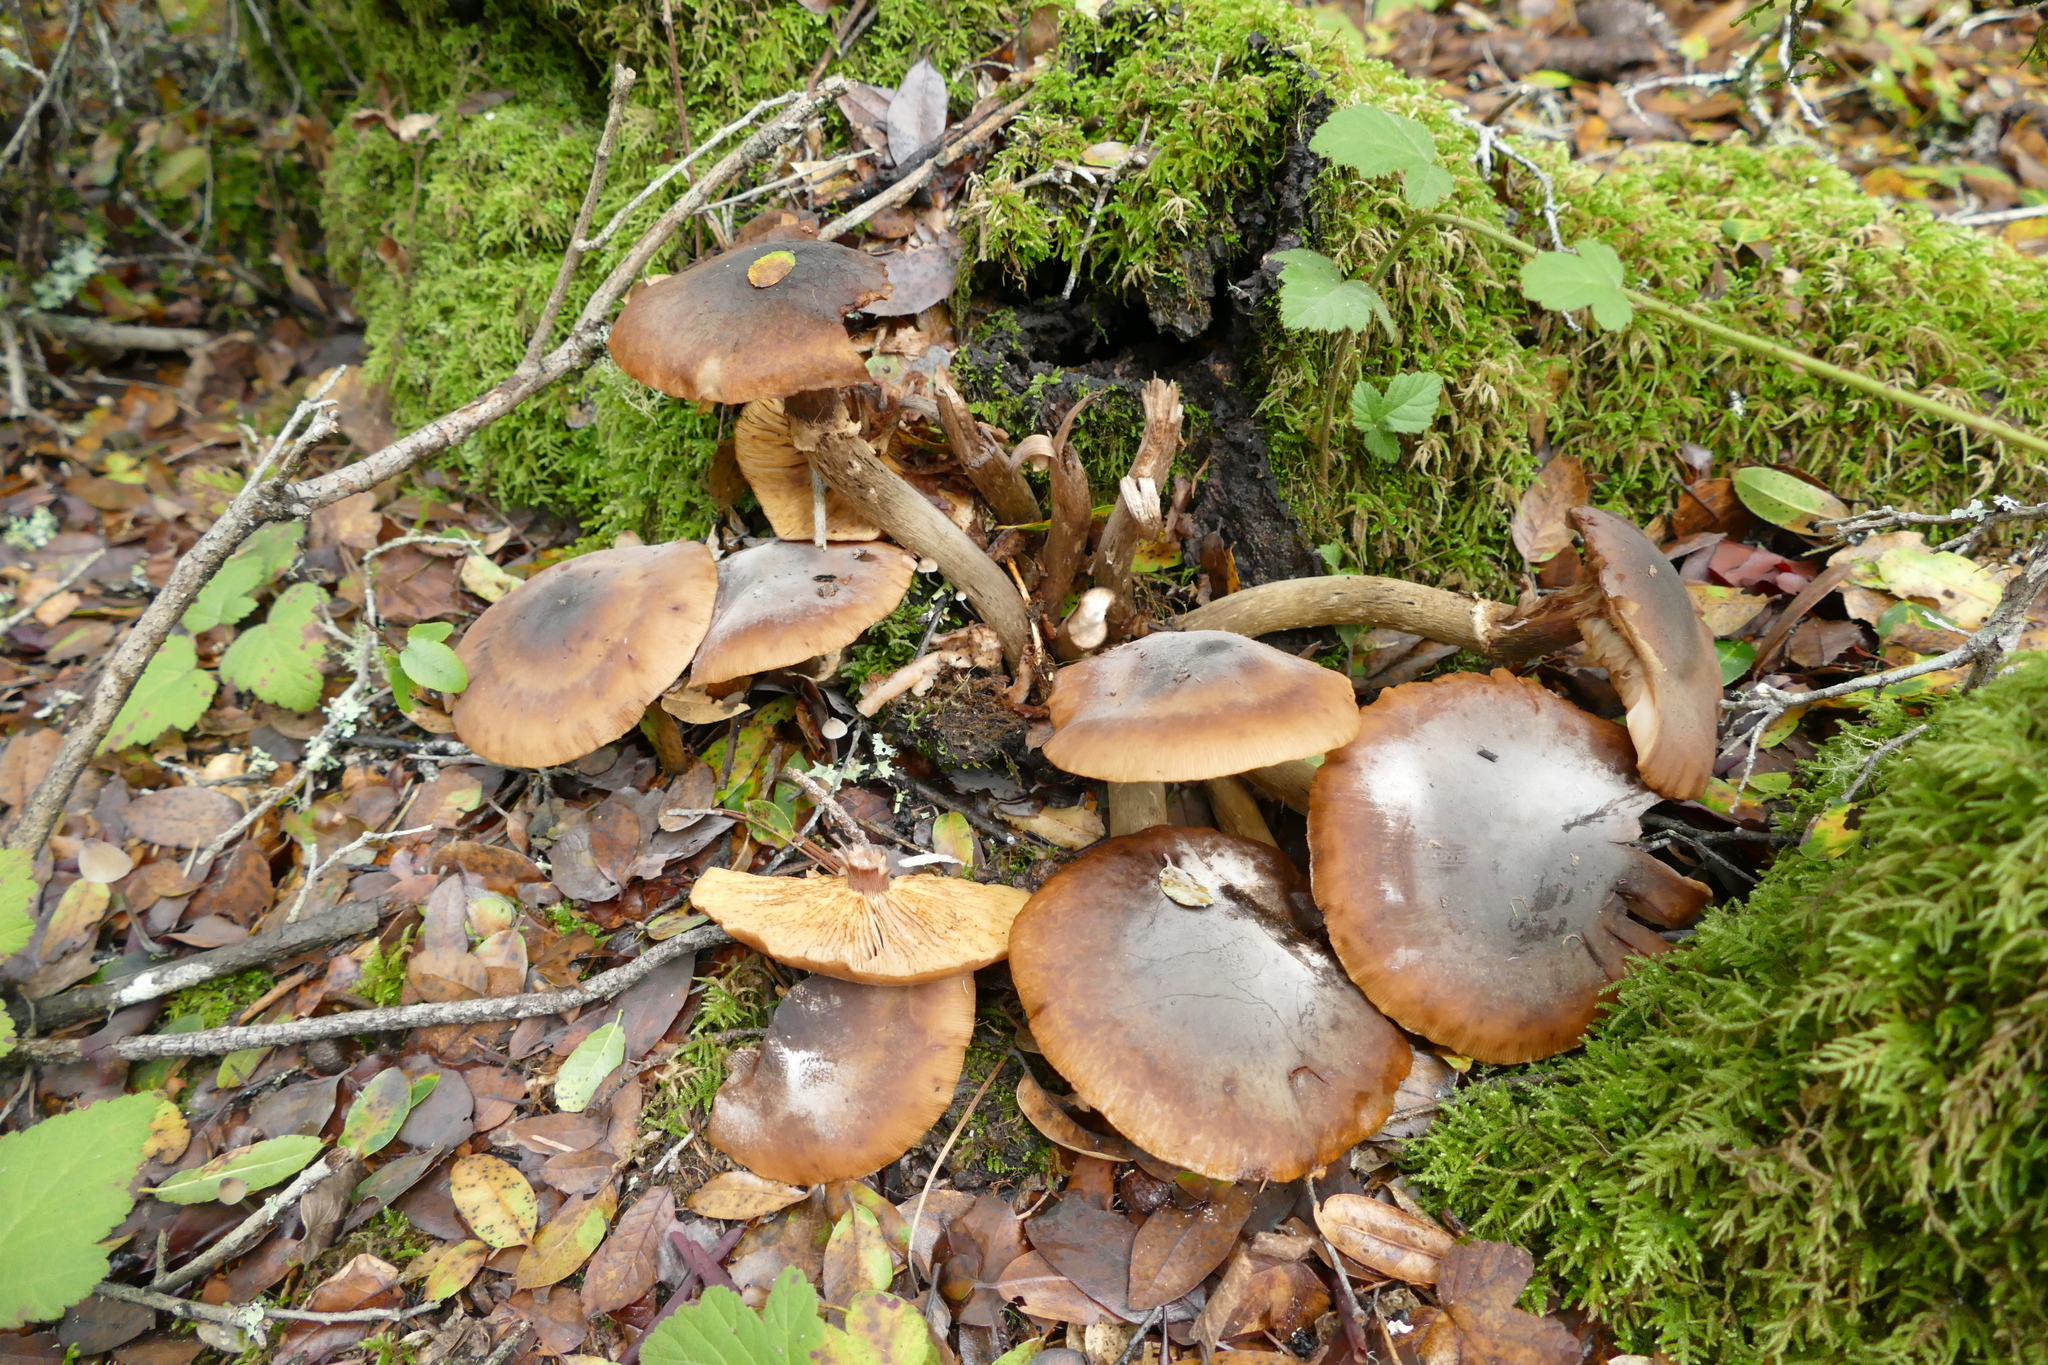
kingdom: Fungi
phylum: Basidiomycota
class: Agaricomycetes
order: Agaricales
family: Physalacriaceae
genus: Armillaria
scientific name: Armillaria mellea
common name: Honey fungus
